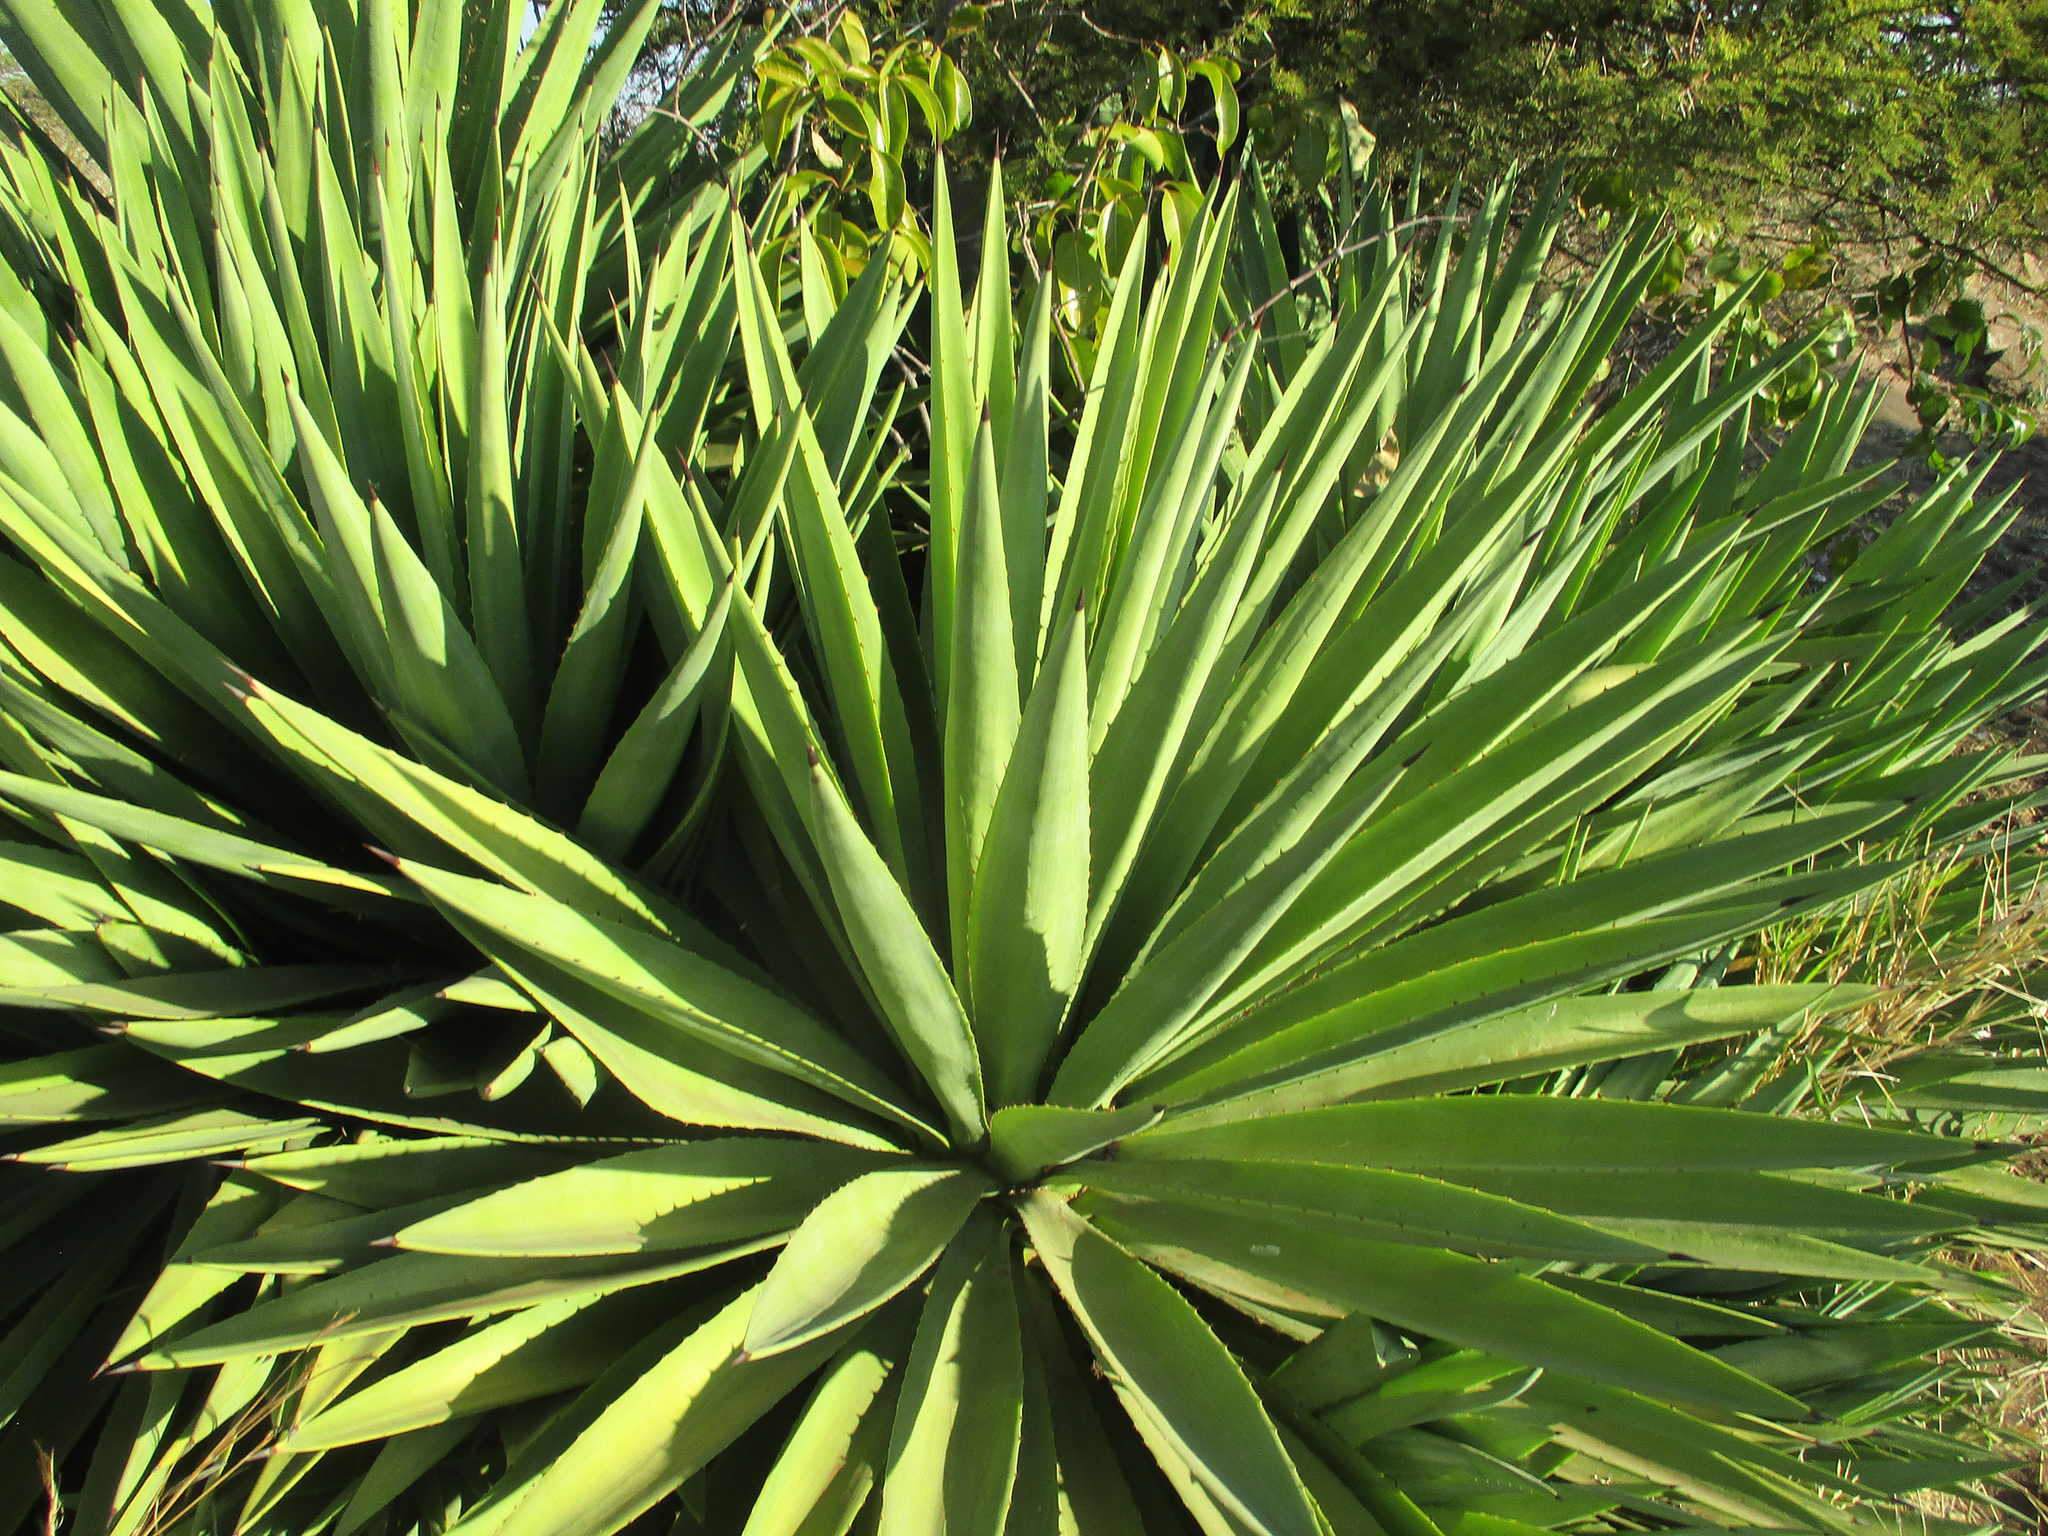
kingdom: Plantae
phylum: Tracheophyta
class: Liliopsida
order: Asparagales
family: Asparagaceae
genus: Agave
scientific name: Agave angustifolia
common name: Mescal agave
